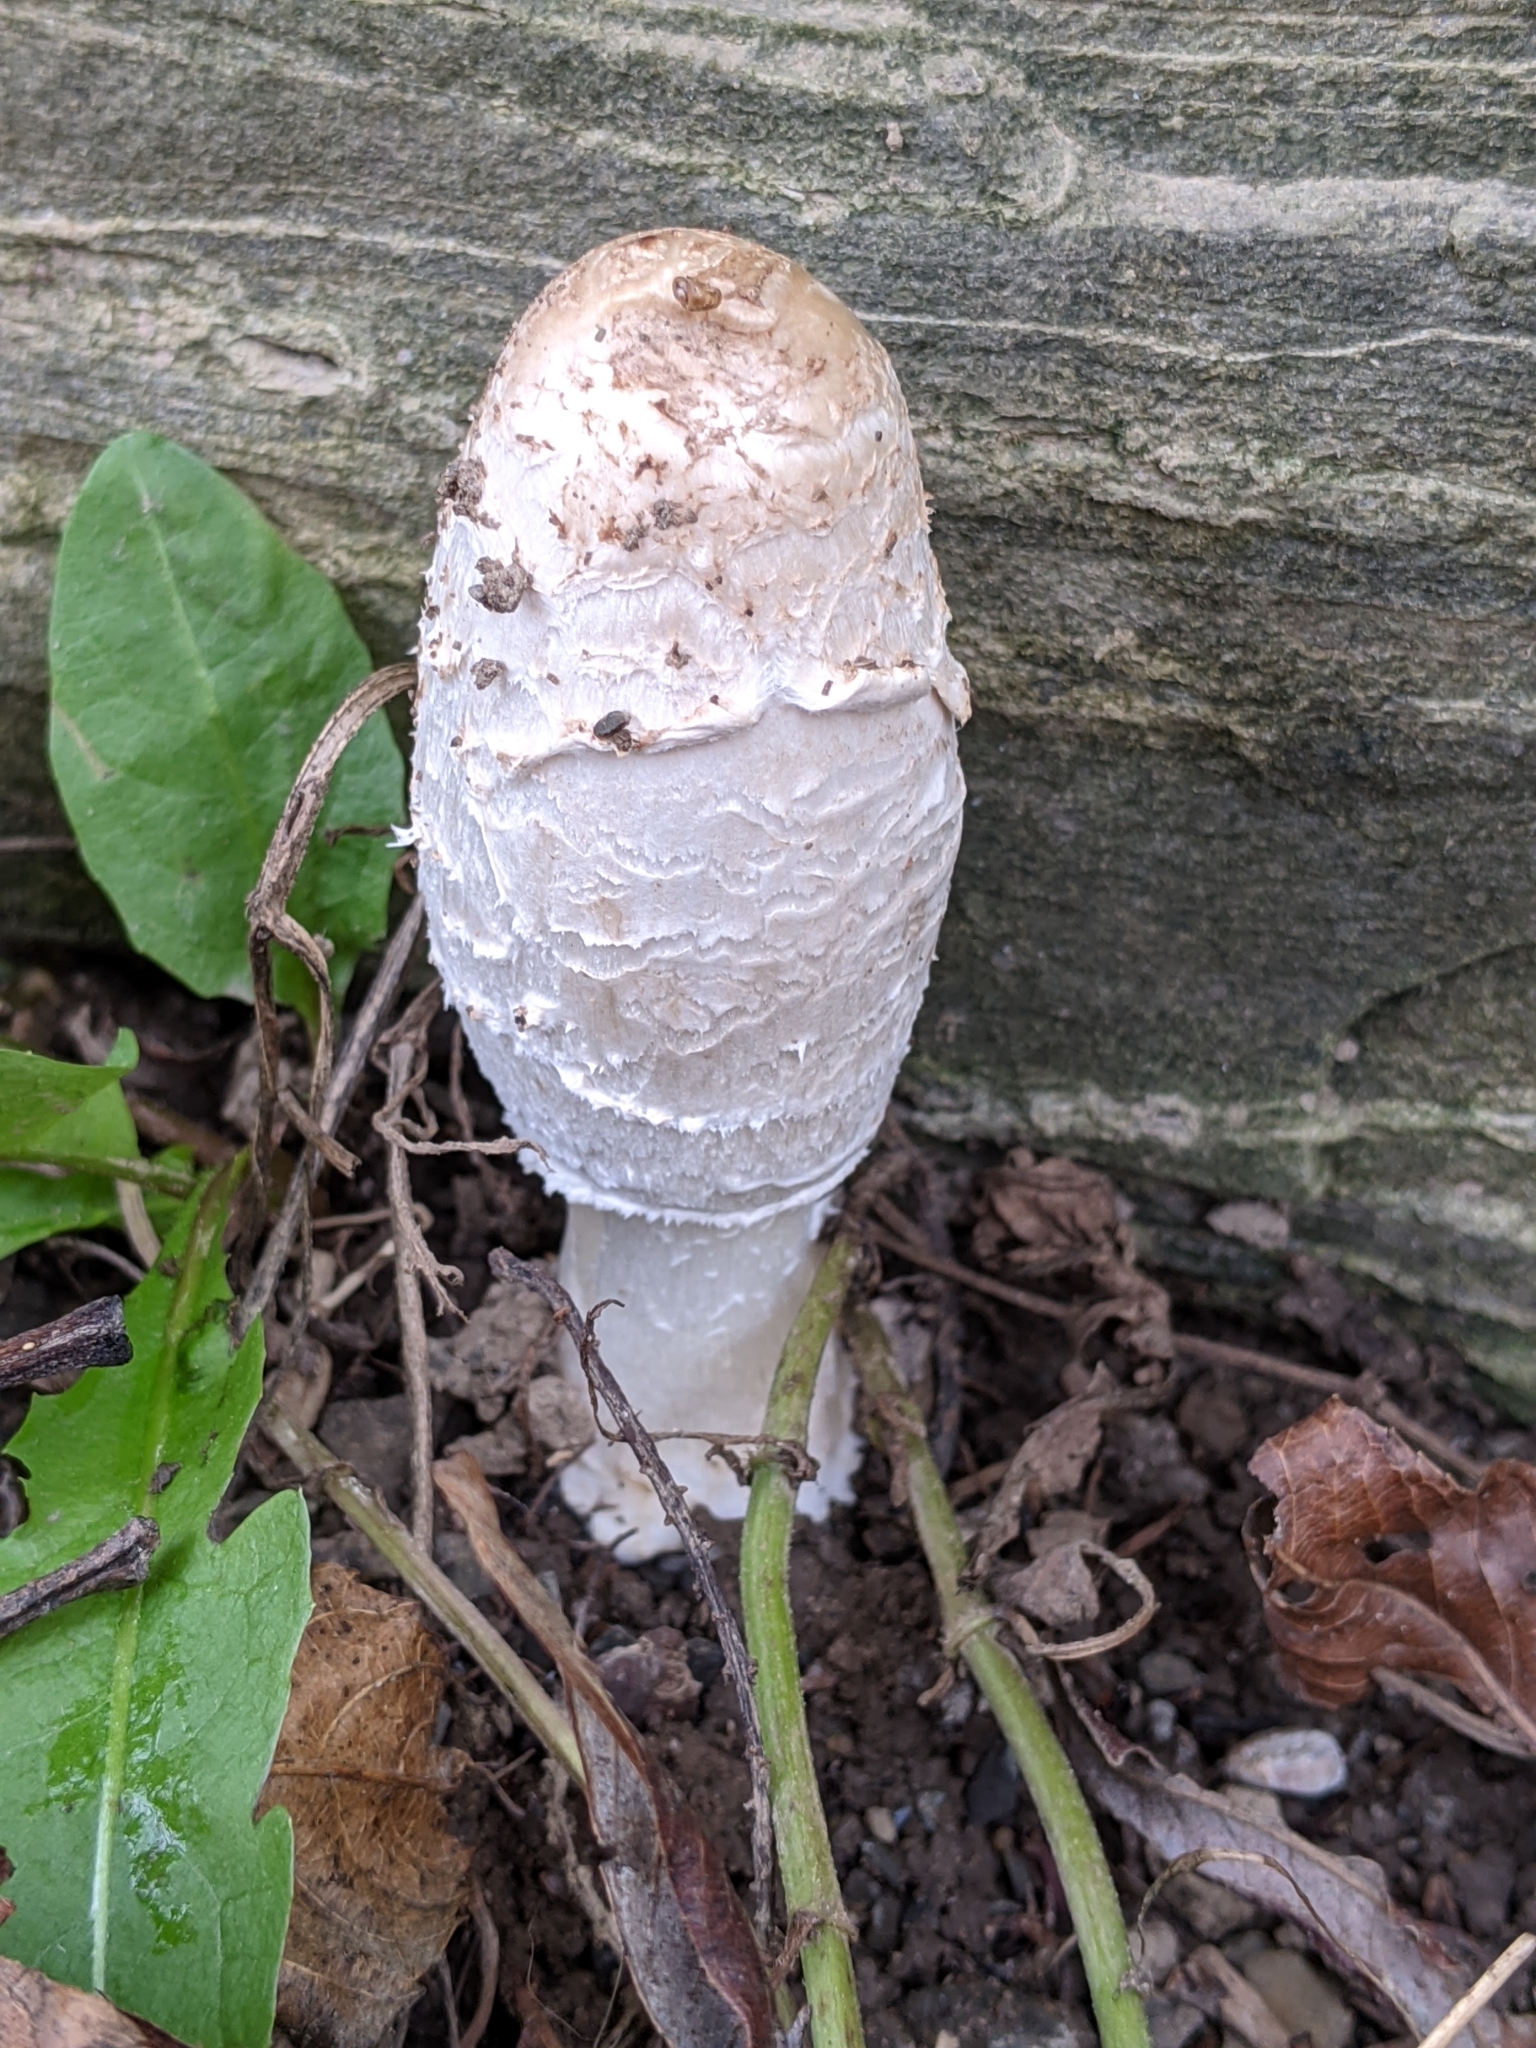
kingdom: Fungi
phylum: Basidiomycota
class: Agaricomycetes
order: Agaricales
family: Agaricaceae
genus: Coprinus
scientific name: Coprinus comatus
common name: Lawyer's wig
